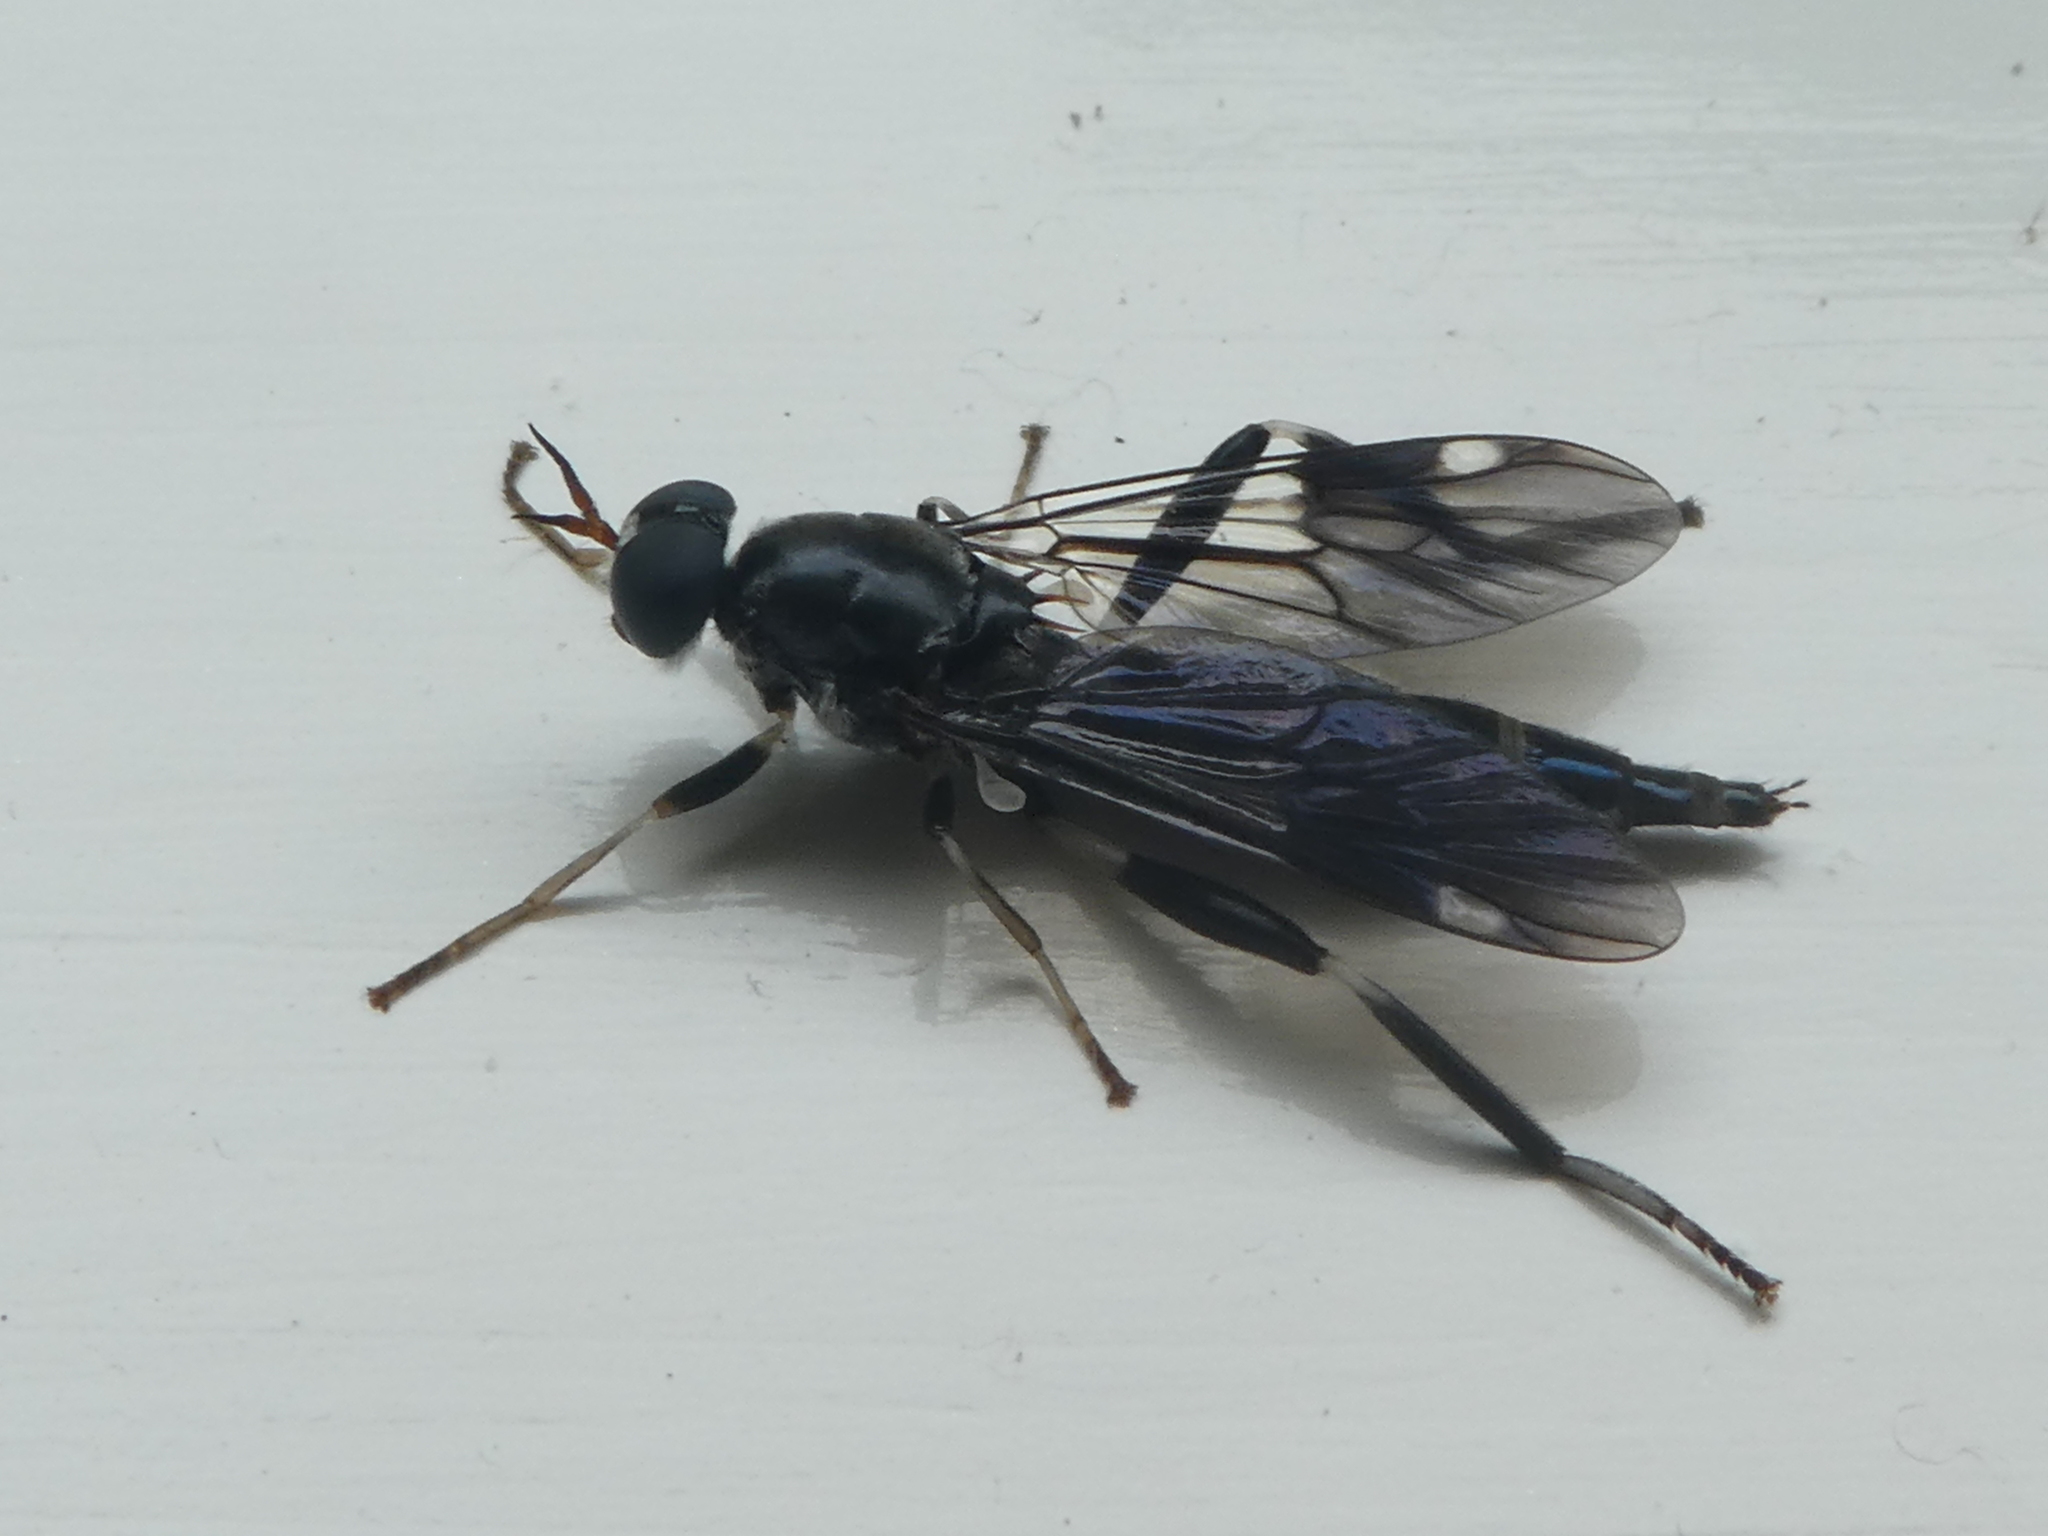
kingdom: Animalia
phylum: Arthropoda
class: Insecta
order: Diptera
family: Stratiomyidae
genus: Exaireta
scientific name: Exaireta spinigera
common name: Blue soldier fly
